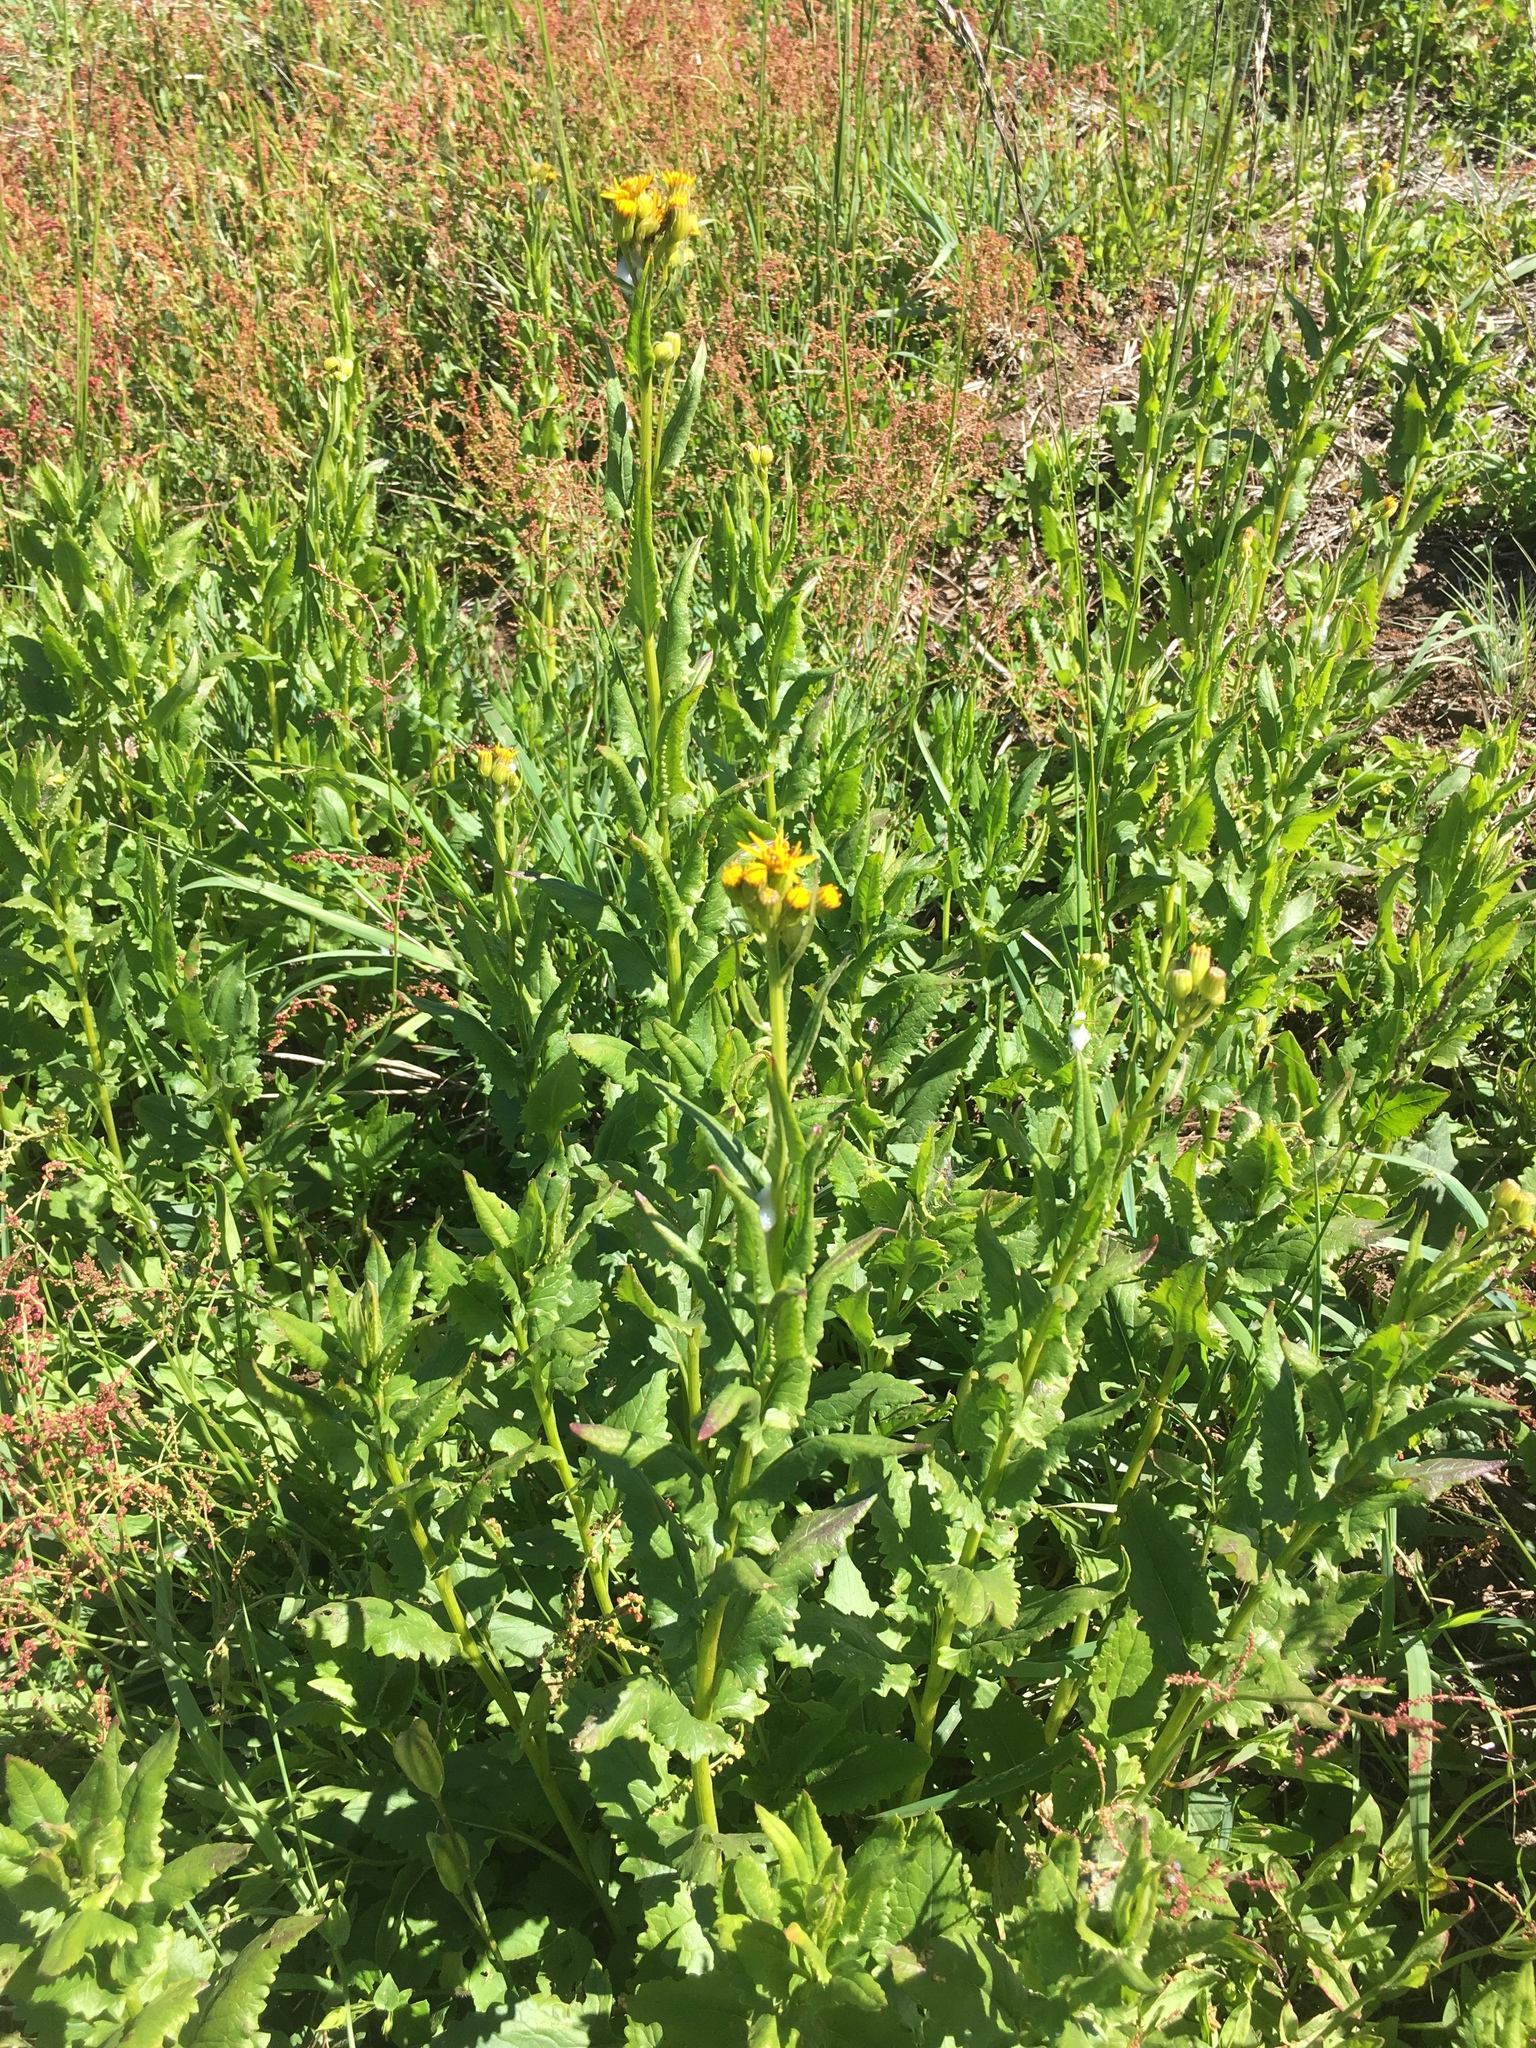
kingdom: Plantae
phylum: Tracheophyta
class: Magnoliopsida
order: Asterales
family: Asteraceae
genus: Senecio
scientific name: Senecio triangularis
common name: Arrowleaf butterweed
